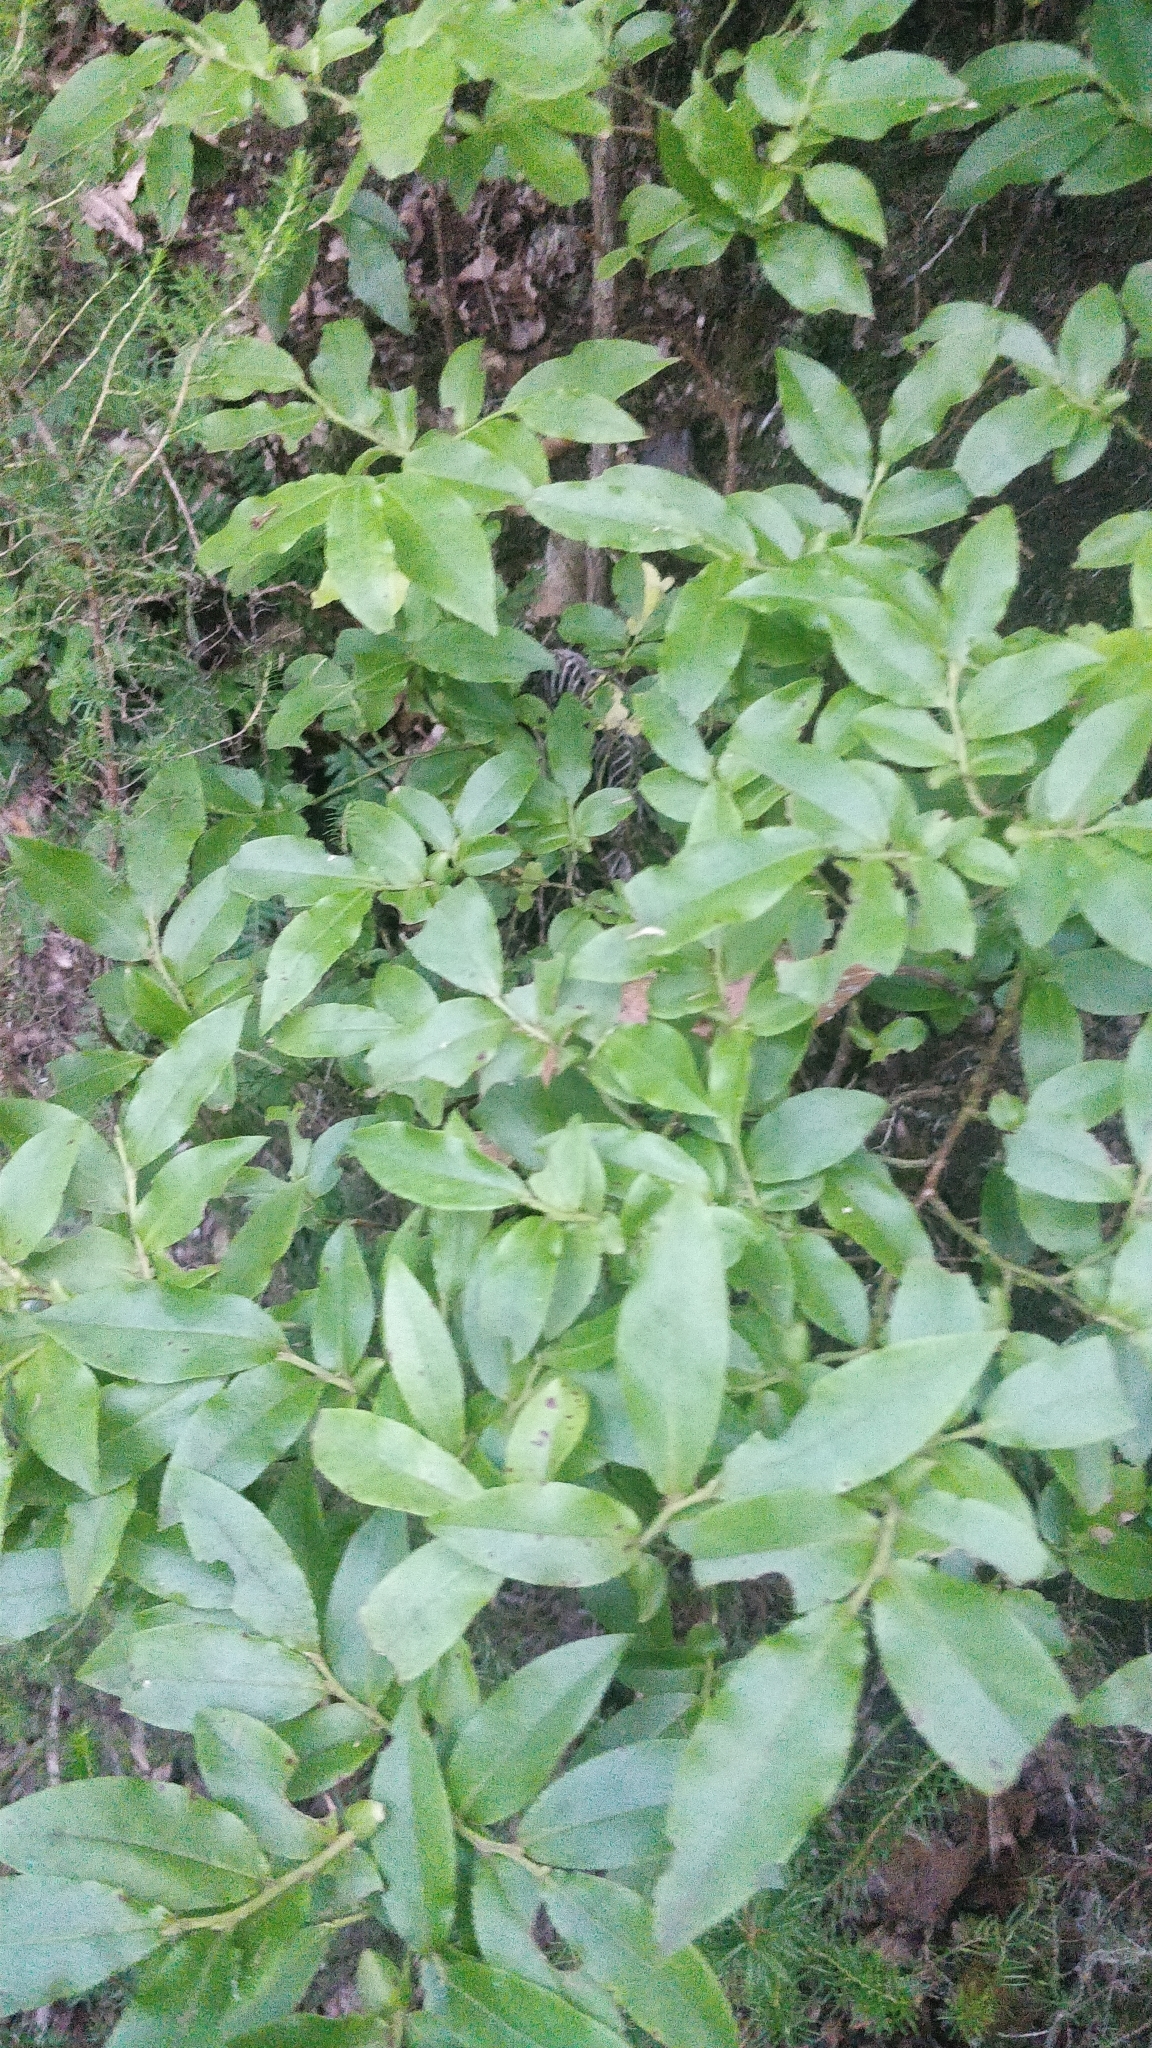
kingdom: Plantae
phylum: Tracheophyta
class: Magnoliopsida
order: Ericales
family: Ericaceae
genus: Vaccinium
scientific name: Vaccinium padifolium
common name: Madeiran blueberry
